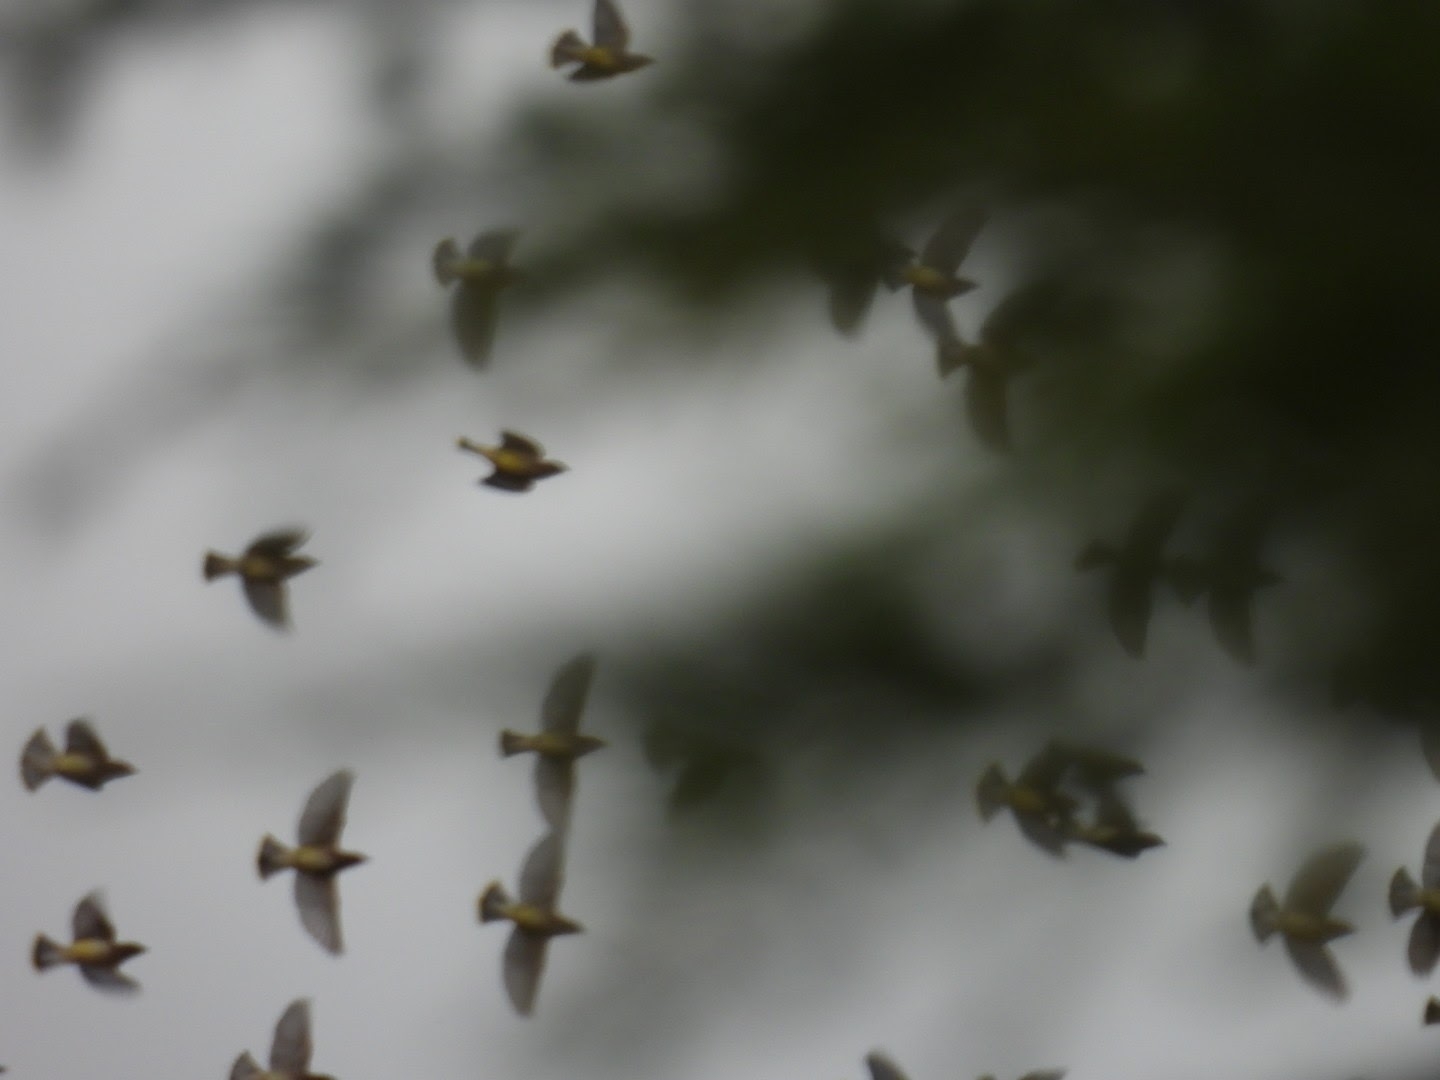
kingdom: Animalia
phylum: Chordata
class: Aves
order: Passeriformes
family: Bombycillidae
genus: Bombycilla
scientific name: Bombycilla cedrorum
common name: Cedar waxwing
